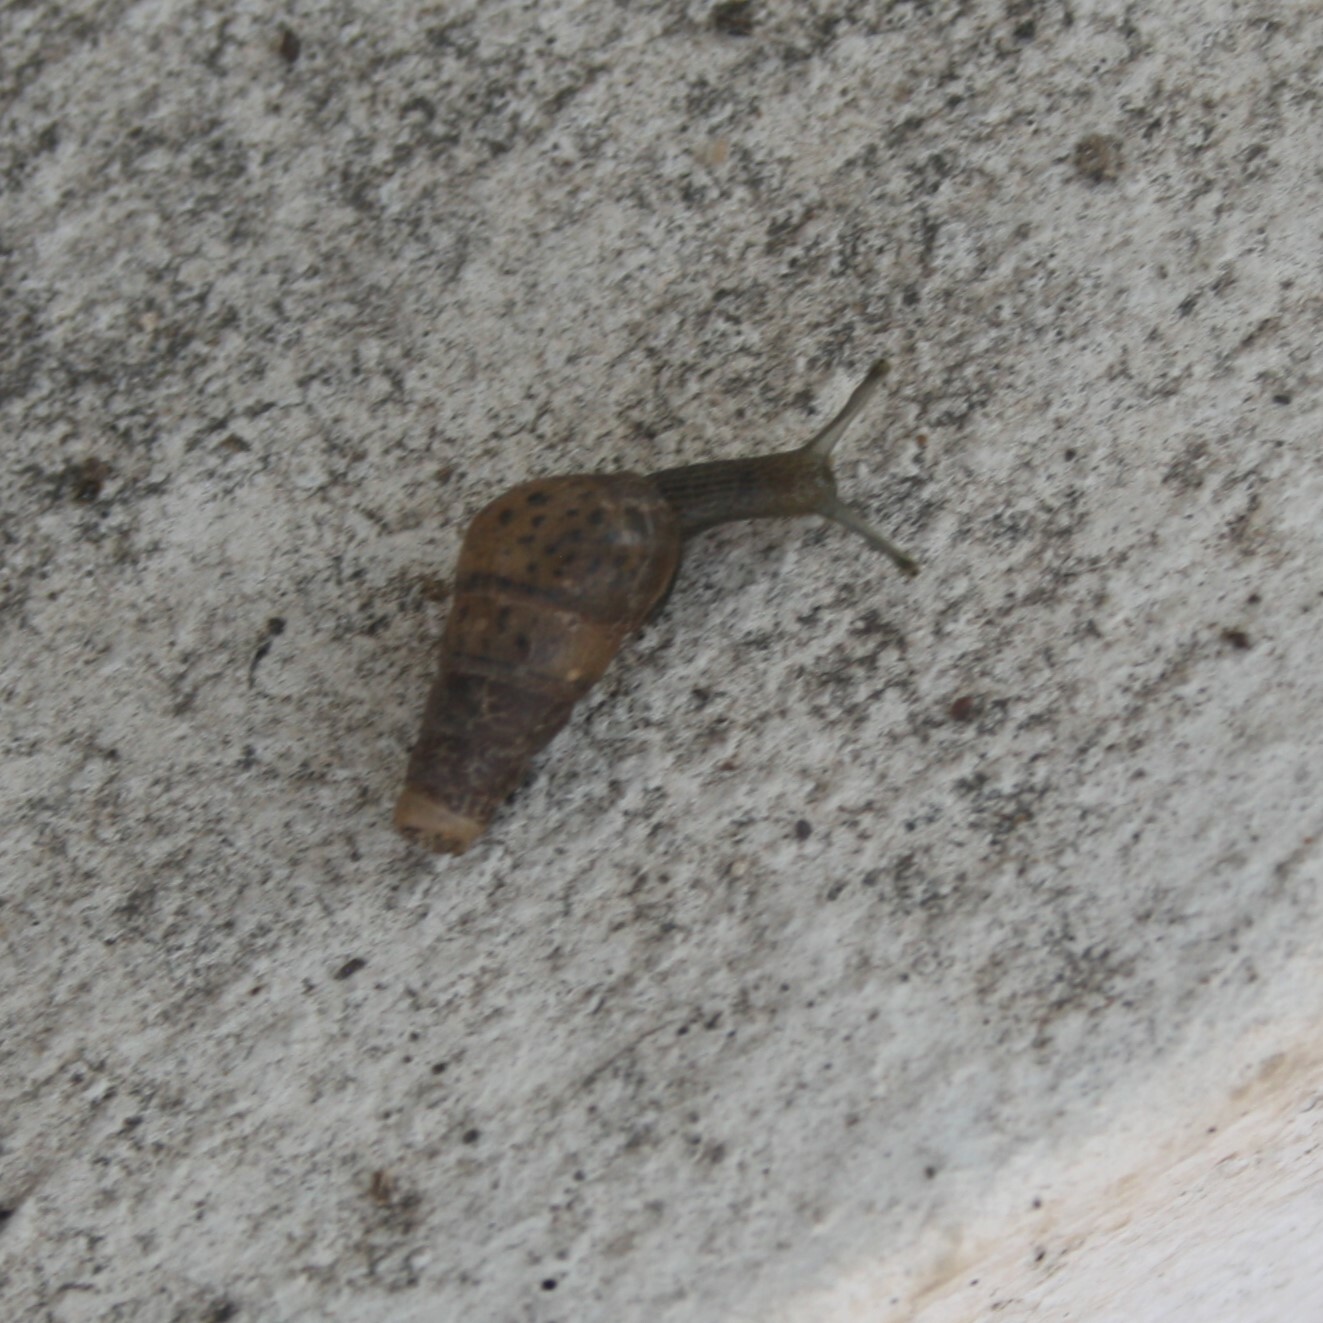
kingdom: Animalia
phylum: Mollusca
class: Gastropoda
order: Stylommatophora
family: Achatinidae
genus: Rumina
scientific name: Rumina decollata
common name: Decollate snail
